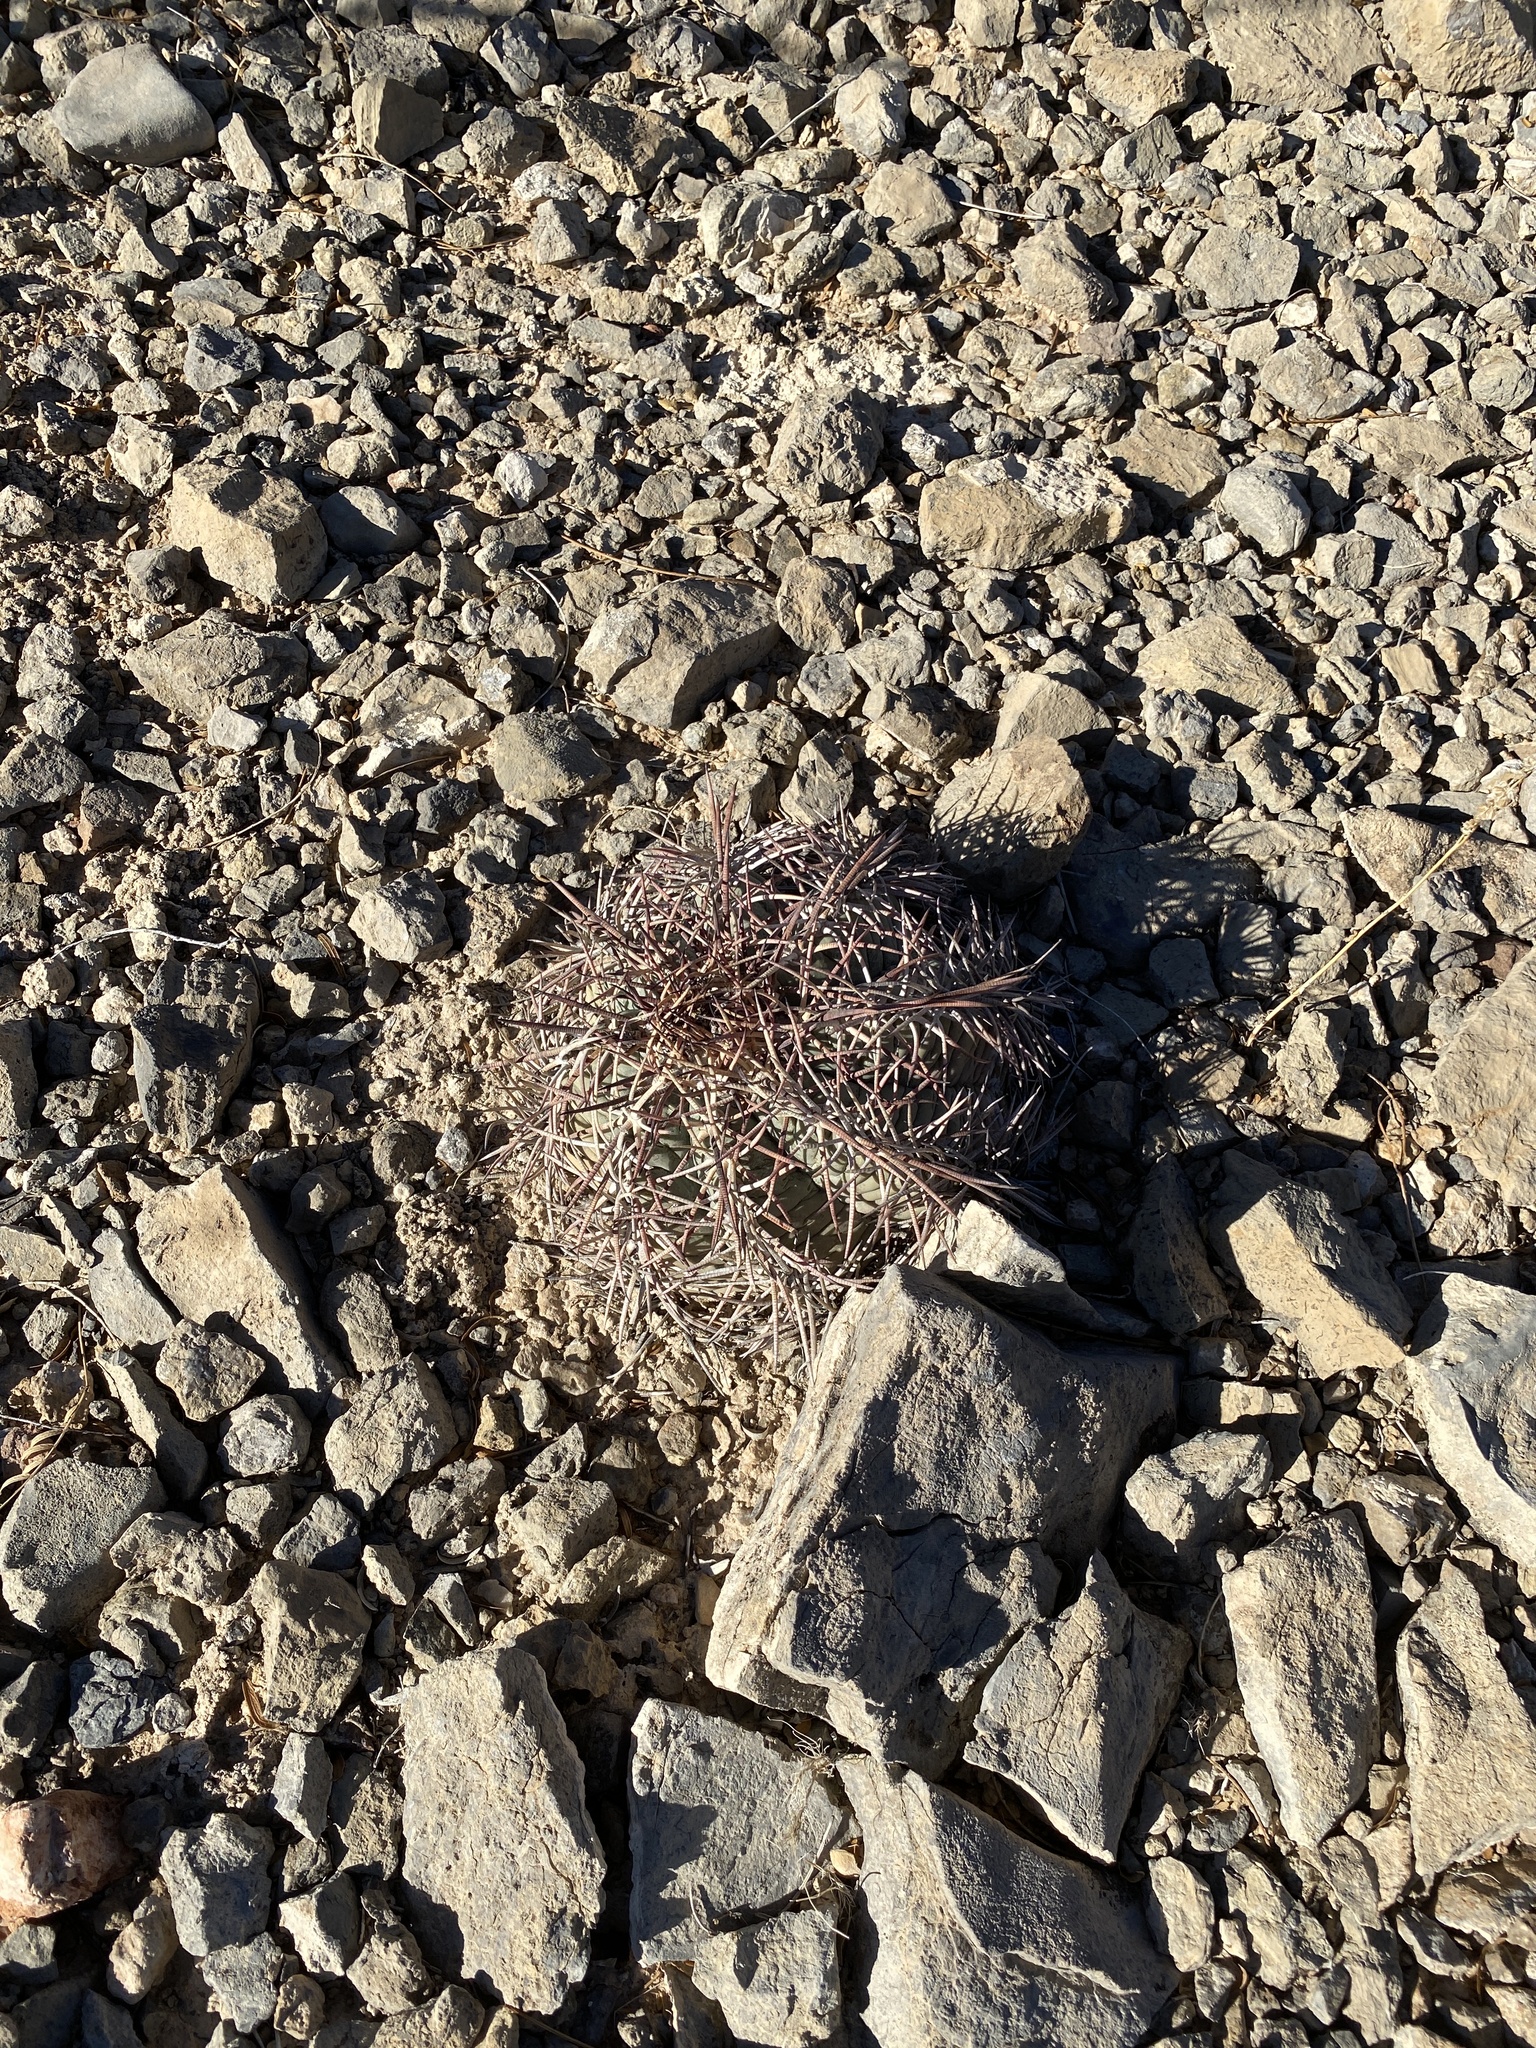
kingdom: Plantae
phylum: Tracheophyta
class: Magnoliopsida
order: Caryophyllales
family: Cactaceae
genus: Echinocactus
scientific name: Echinocactus horizonthalonius
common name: Devilshead
